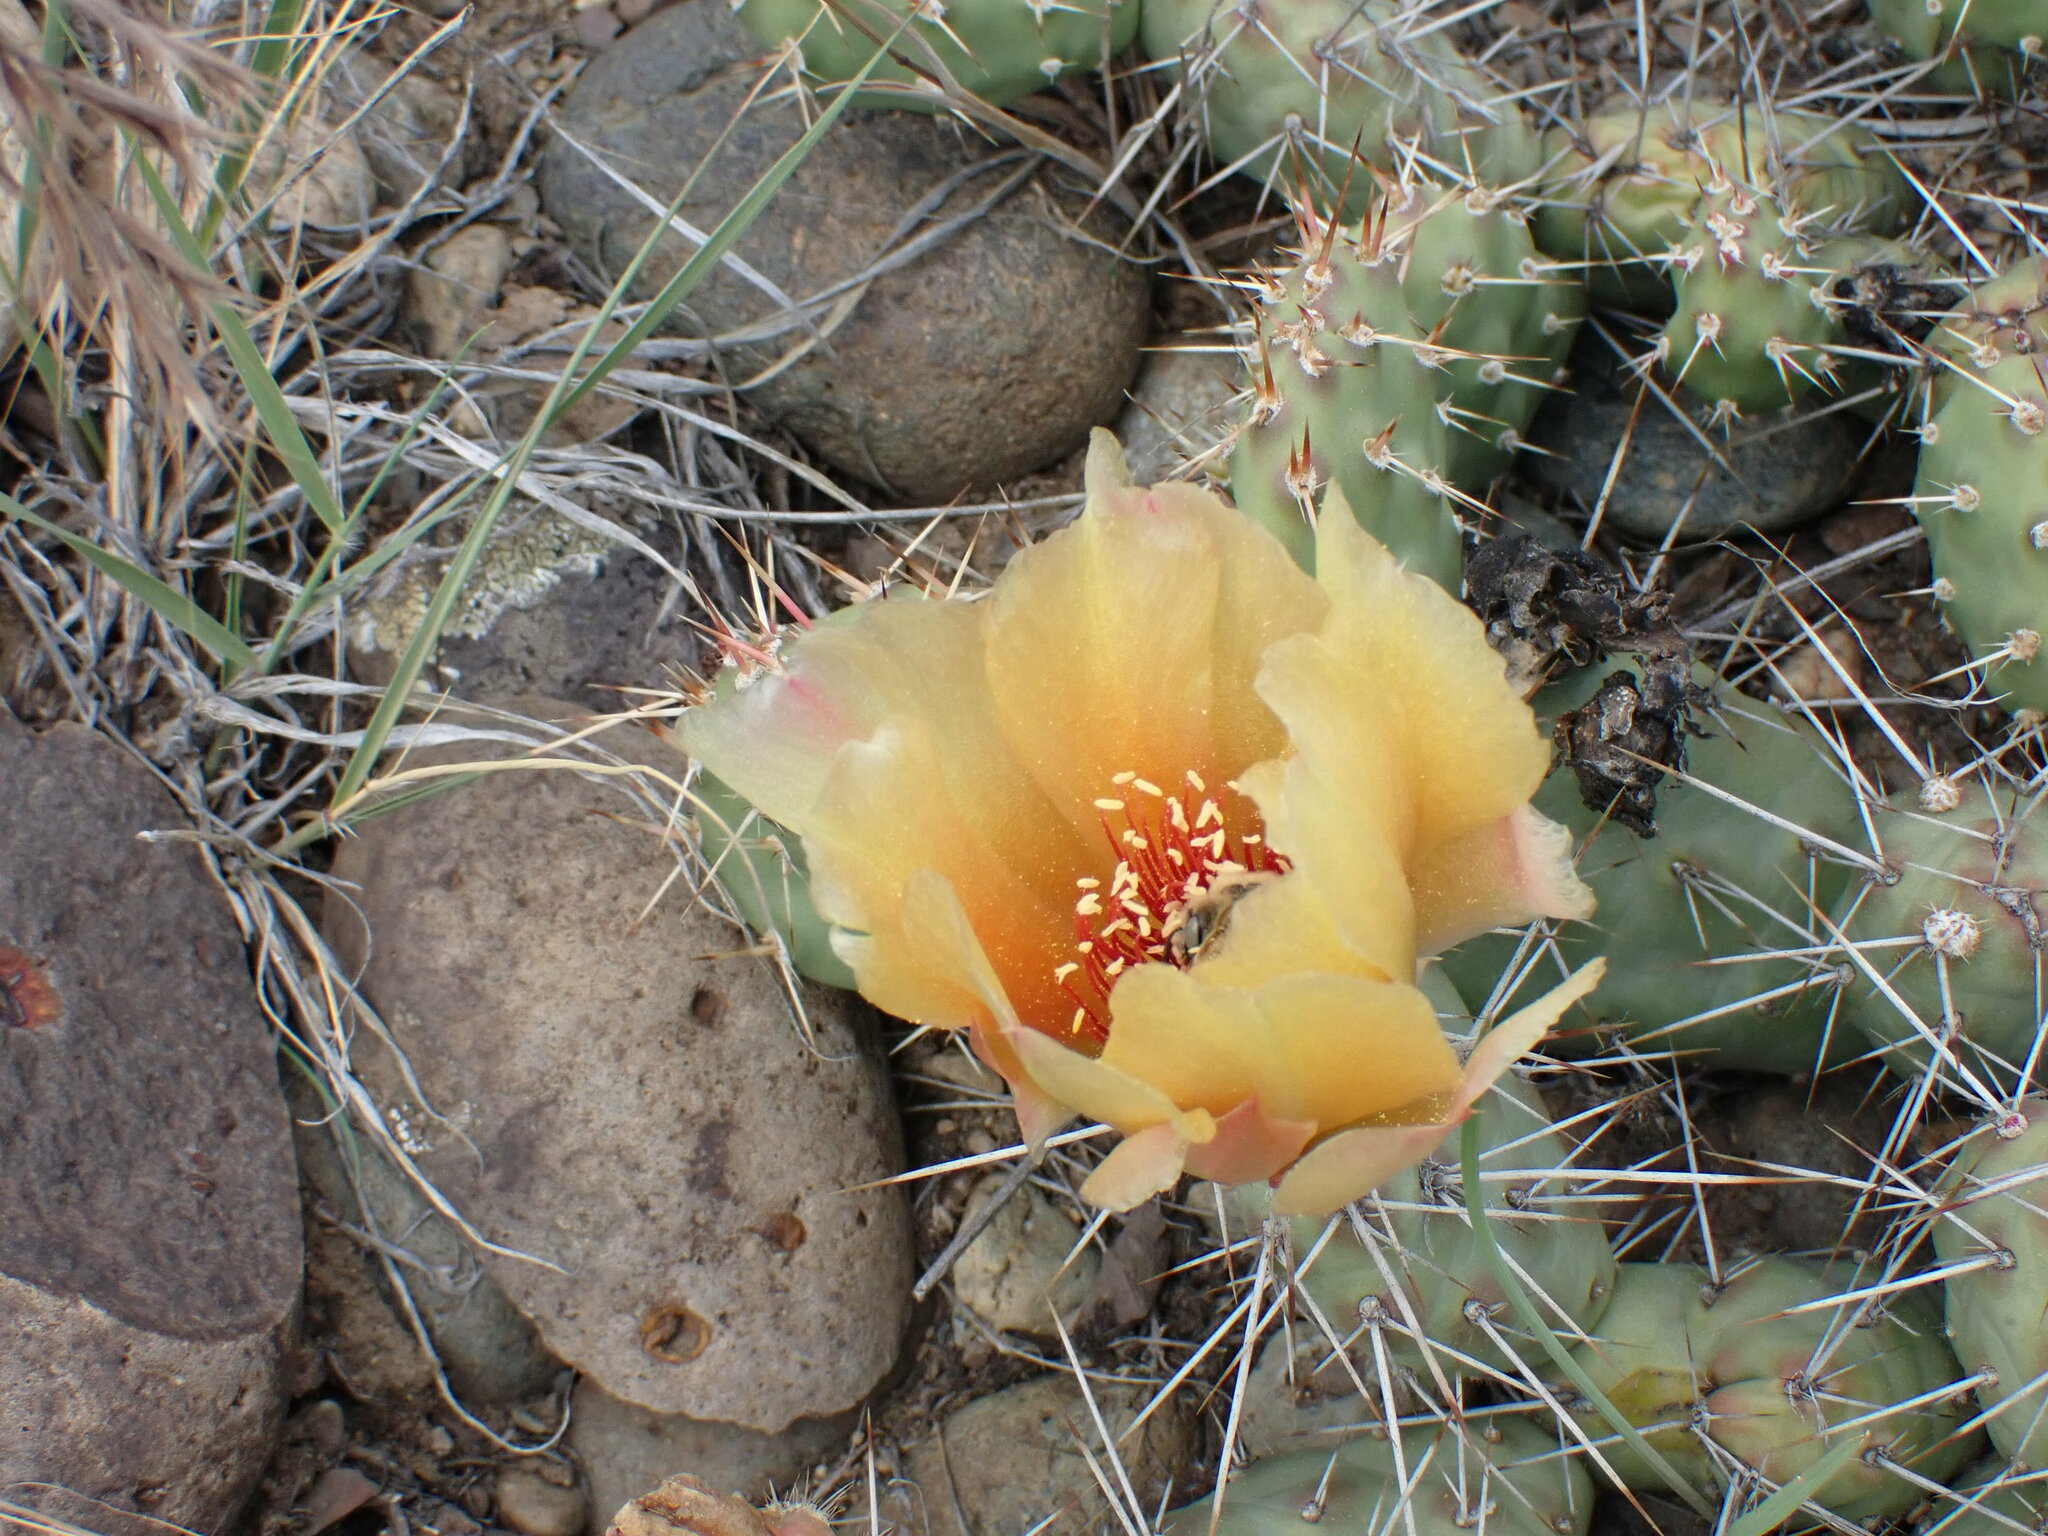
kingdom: Plantae
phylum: Tracheophyta
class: Magnoliopsida
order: Caryophyllales
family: Cactaceae
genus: Opuntia
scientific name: Opuntia fragilis
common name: Brittle cactus
